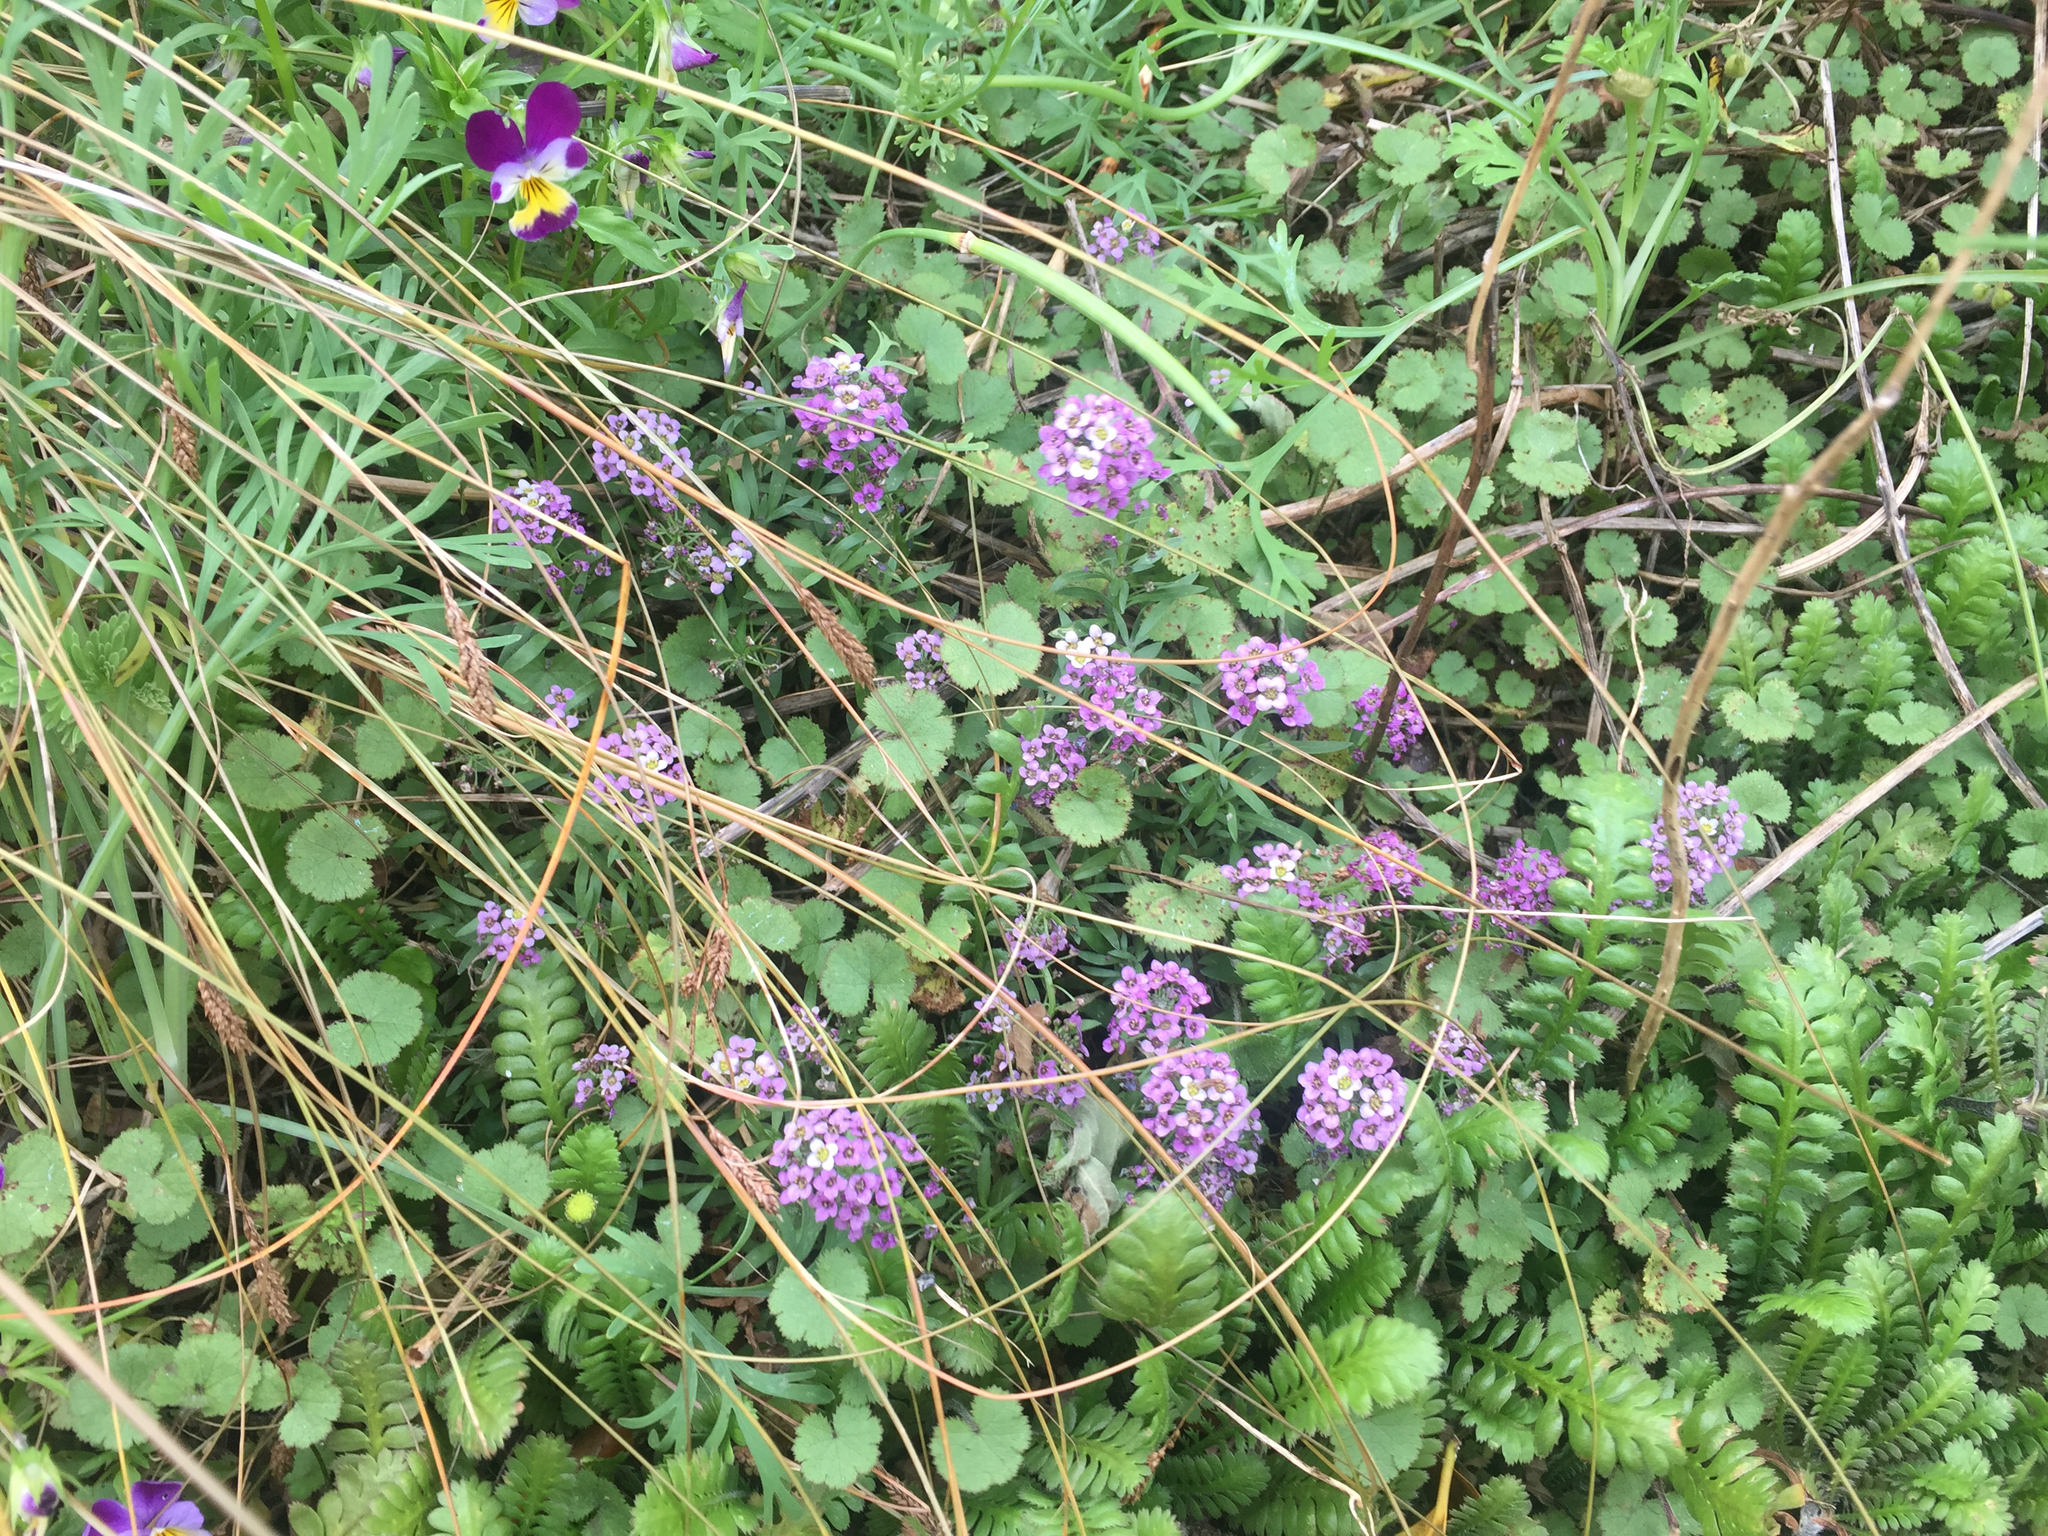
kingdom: Plantae
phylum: Tracheophyta
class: Magnoliopsida
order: Brassicales
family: Brassicaceae
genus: Lobularia
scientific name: Lobularia maritima
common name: Sweet alison
